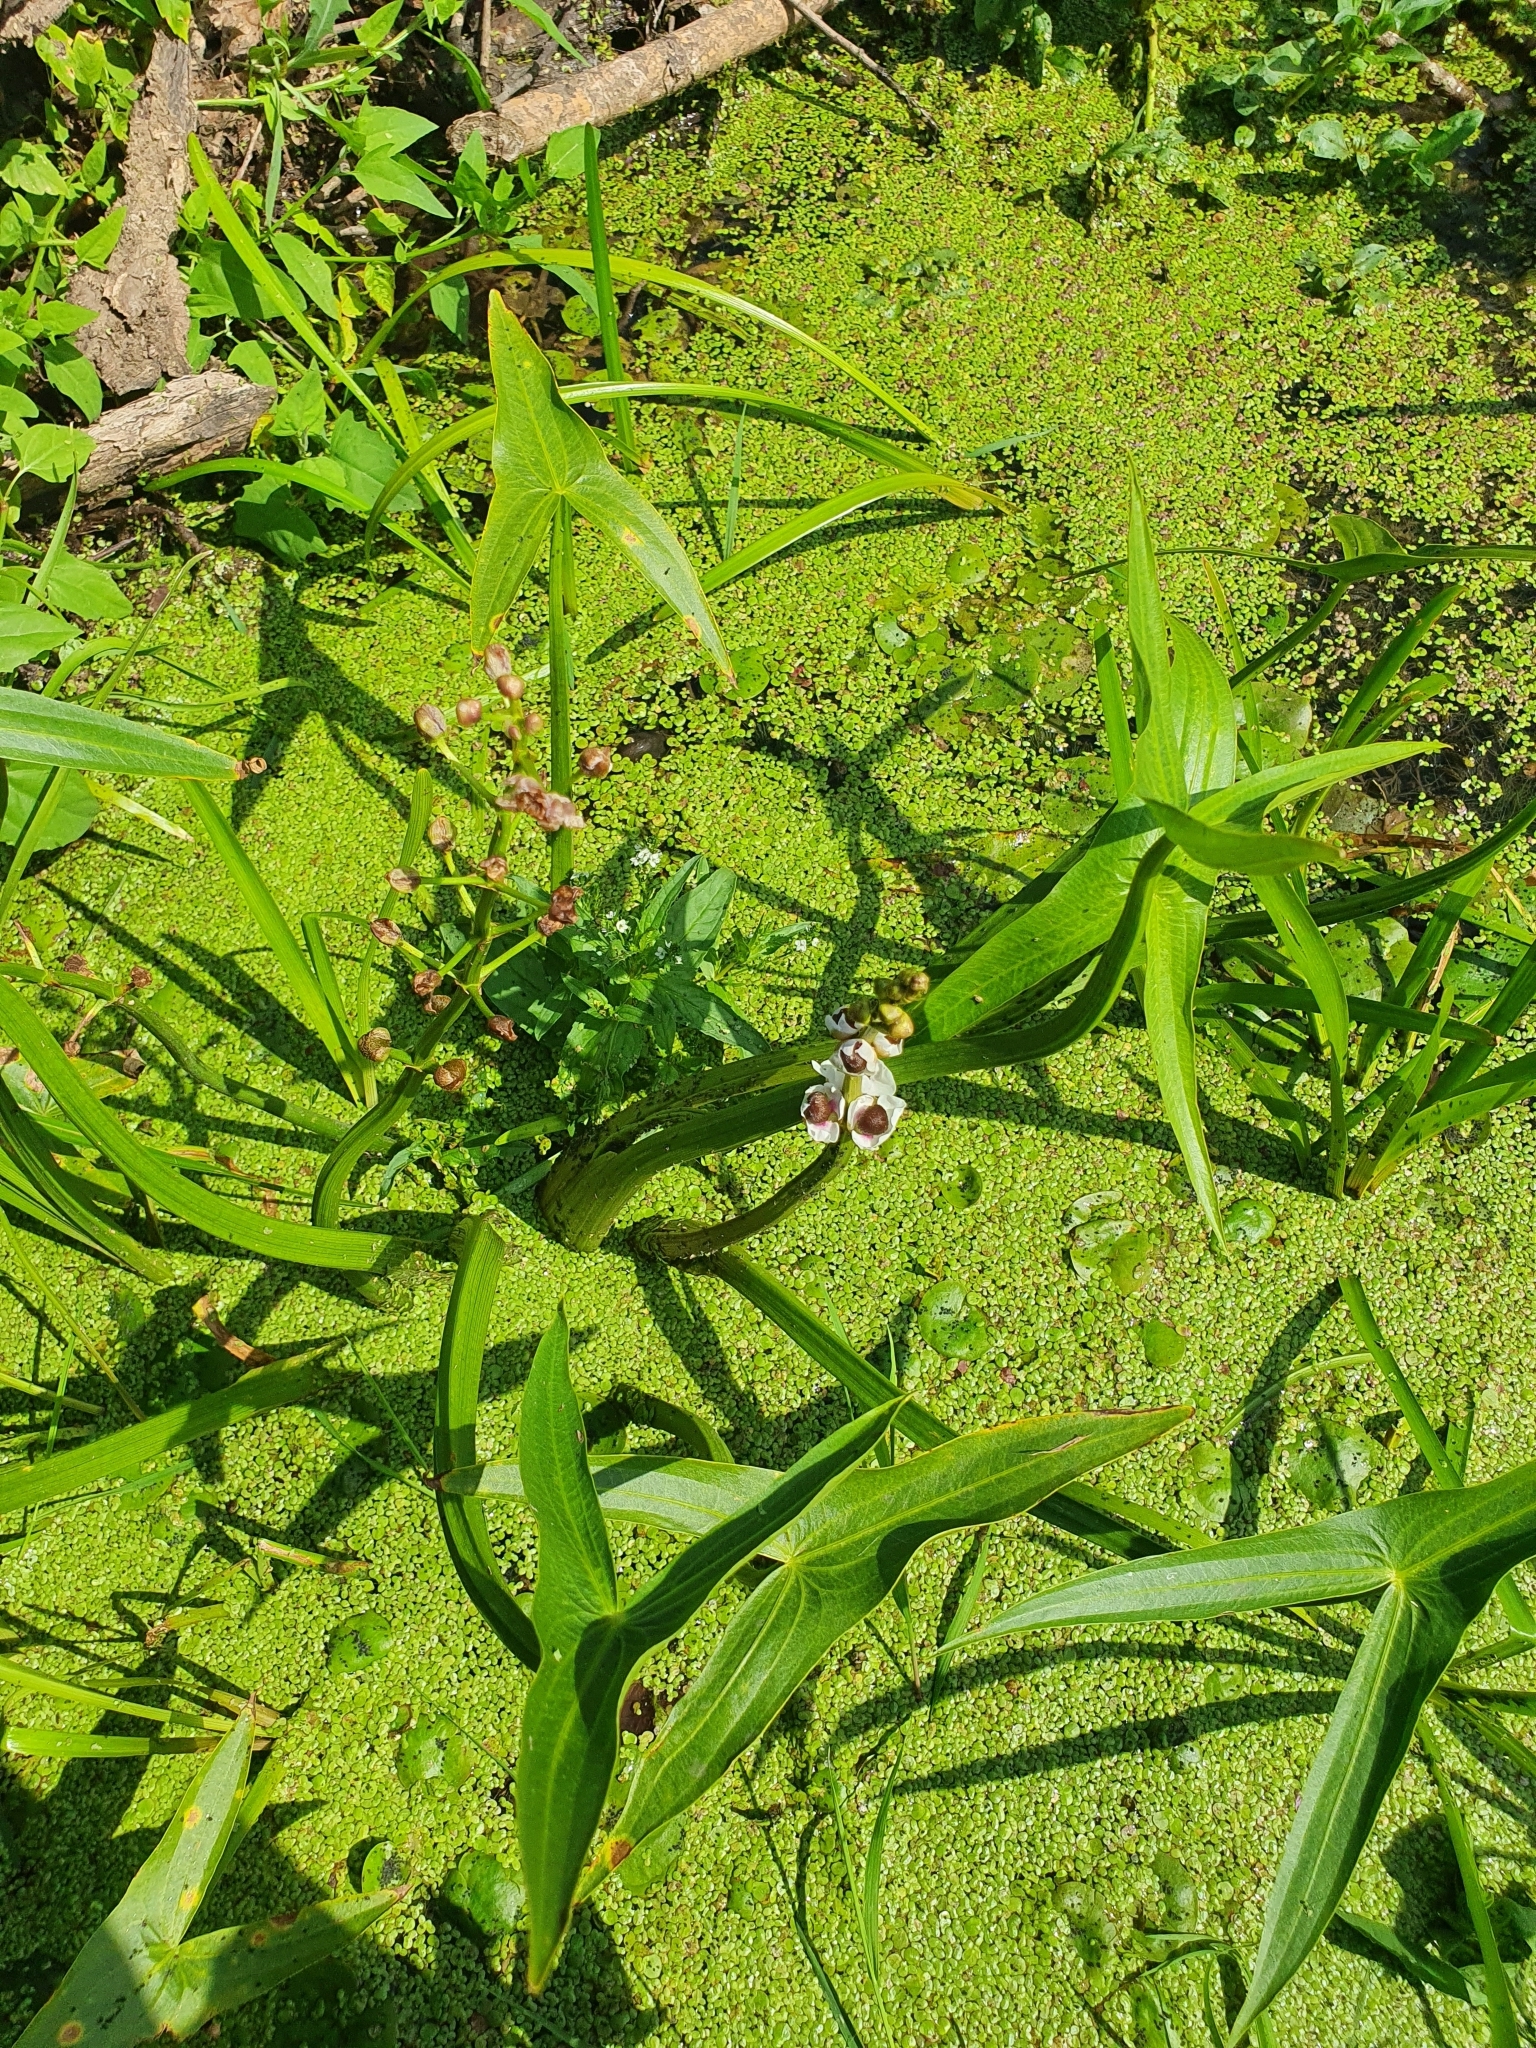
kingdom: Plantae
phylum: Tracheophyta
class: Liliopsida
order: Alismatales
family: Alismataceae
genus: Sagittaria
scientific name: Sagittaria sagittifolia
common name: Arrowhead
